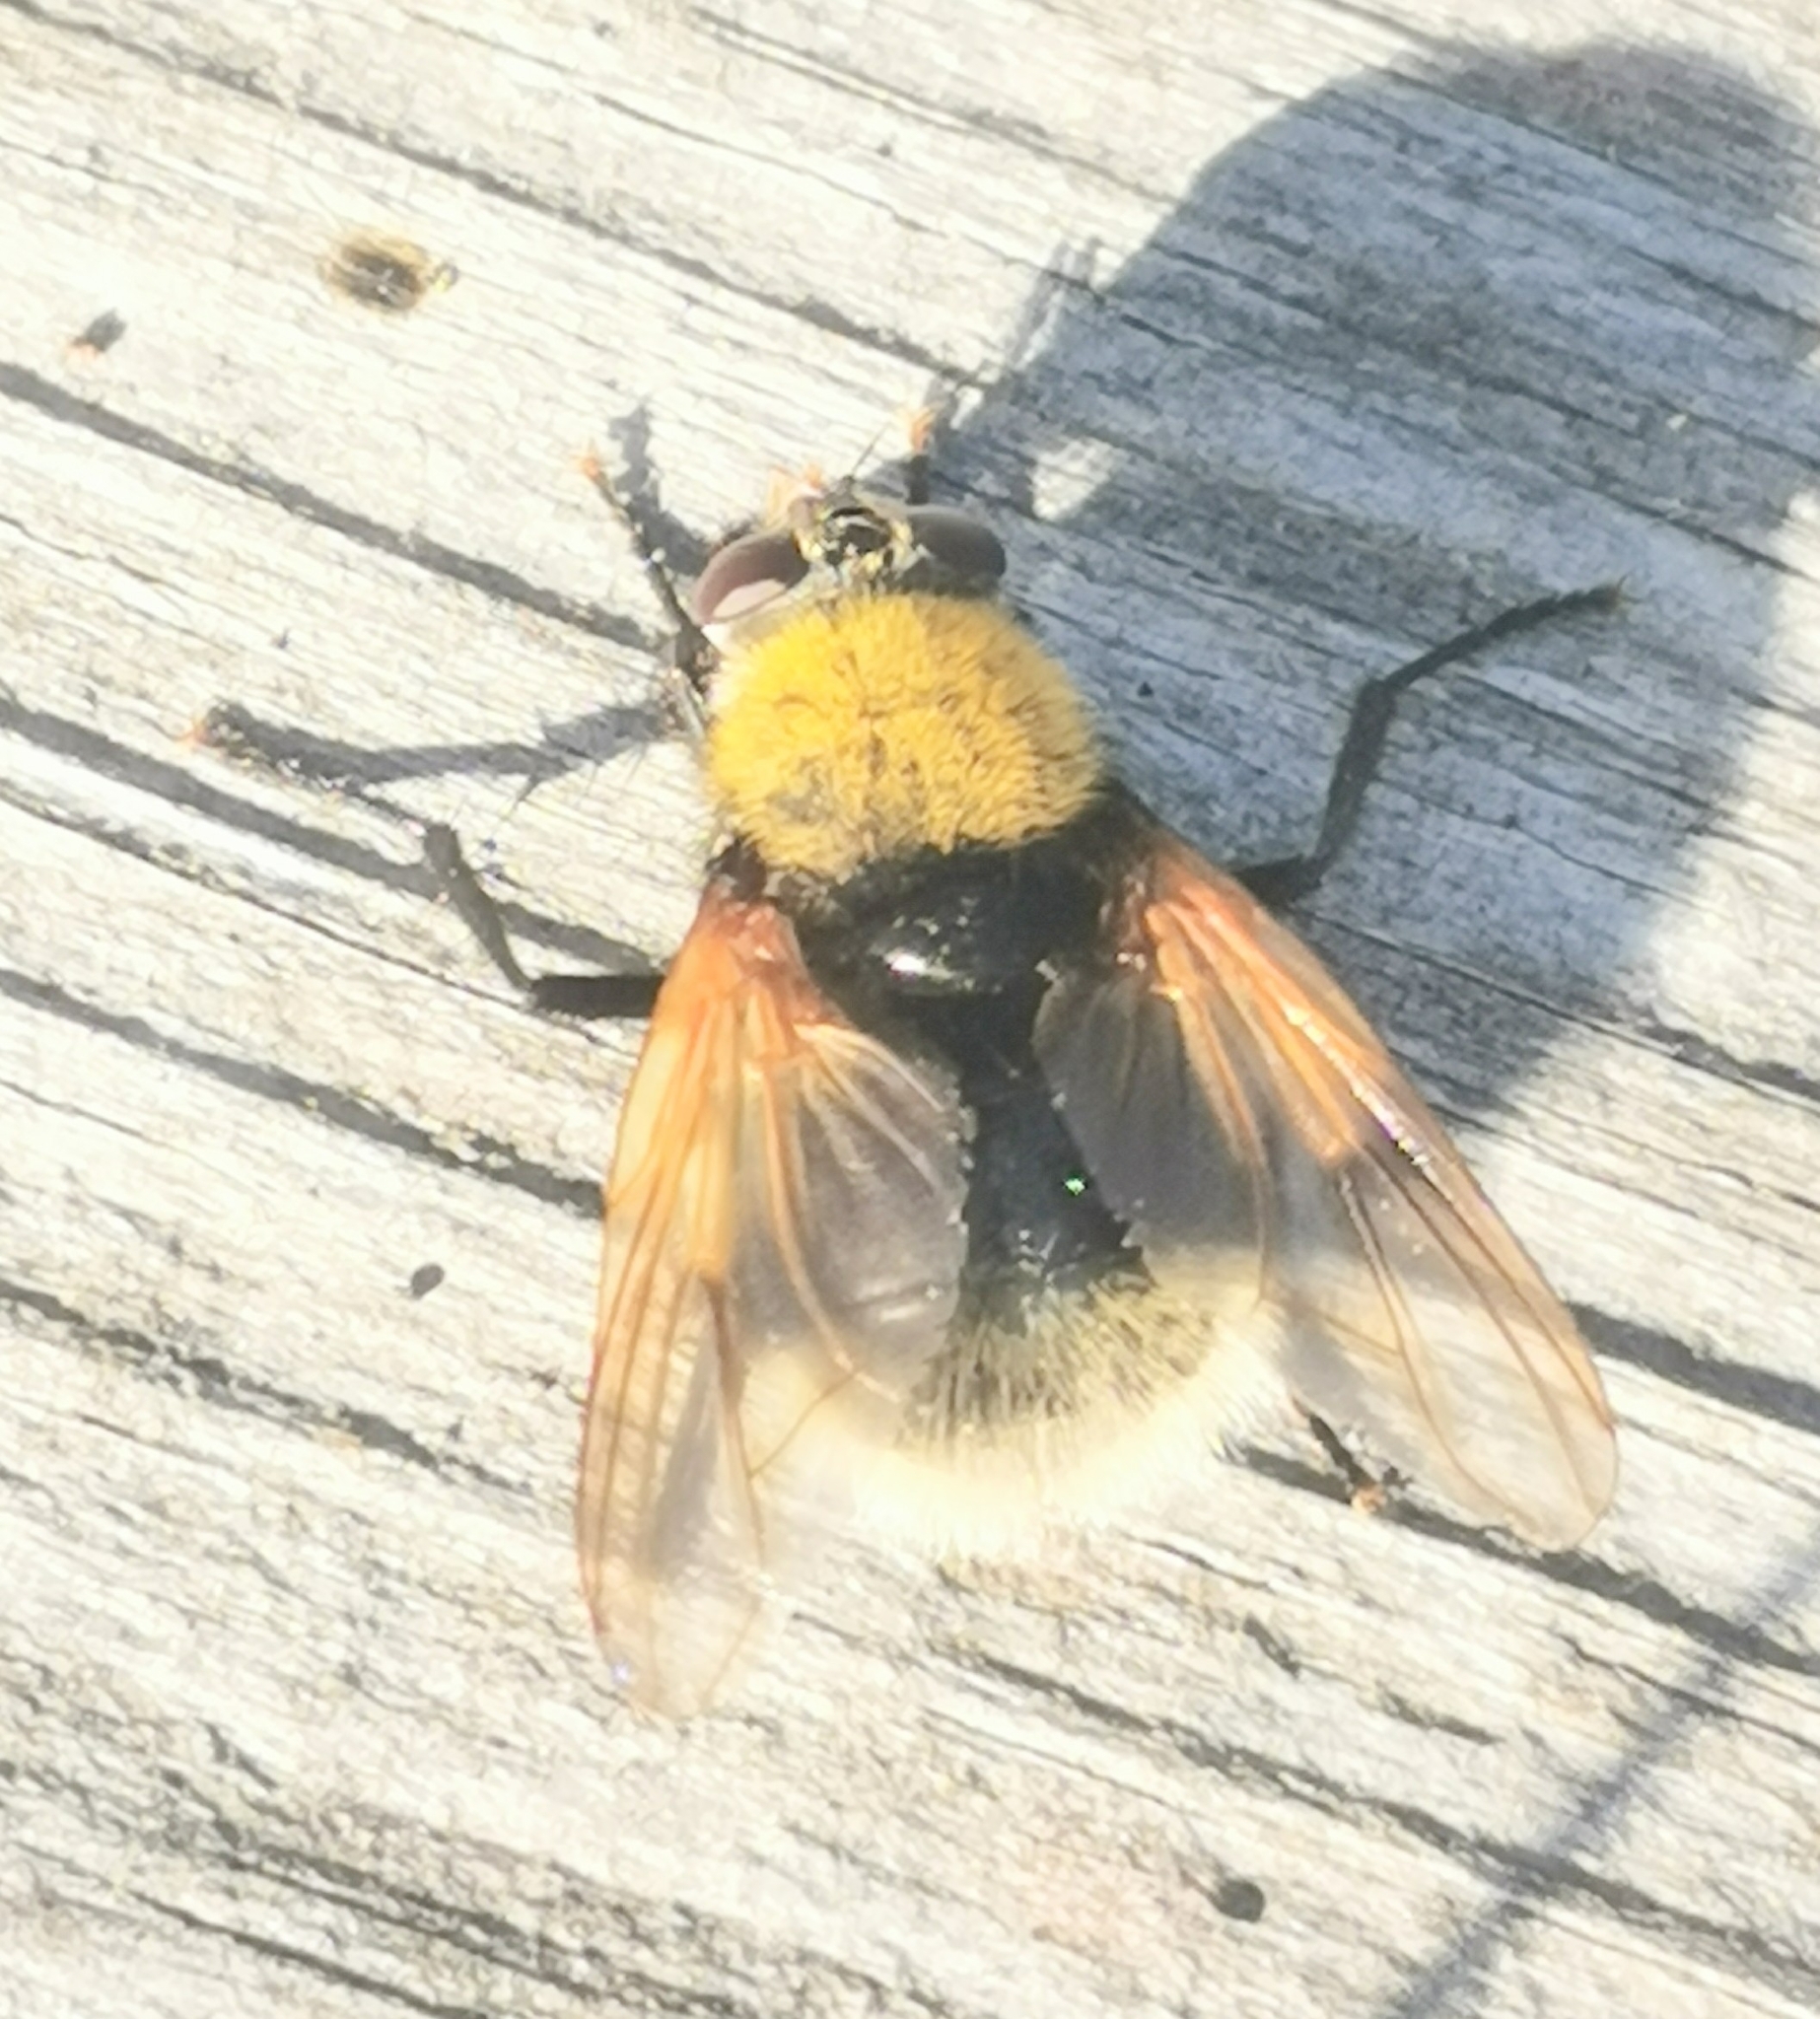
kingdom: Animalia
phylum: Arthropoda
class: Insecta
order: Diptera
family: Muscidae
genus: Mesembrina
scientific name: Mesembrina mystacea
